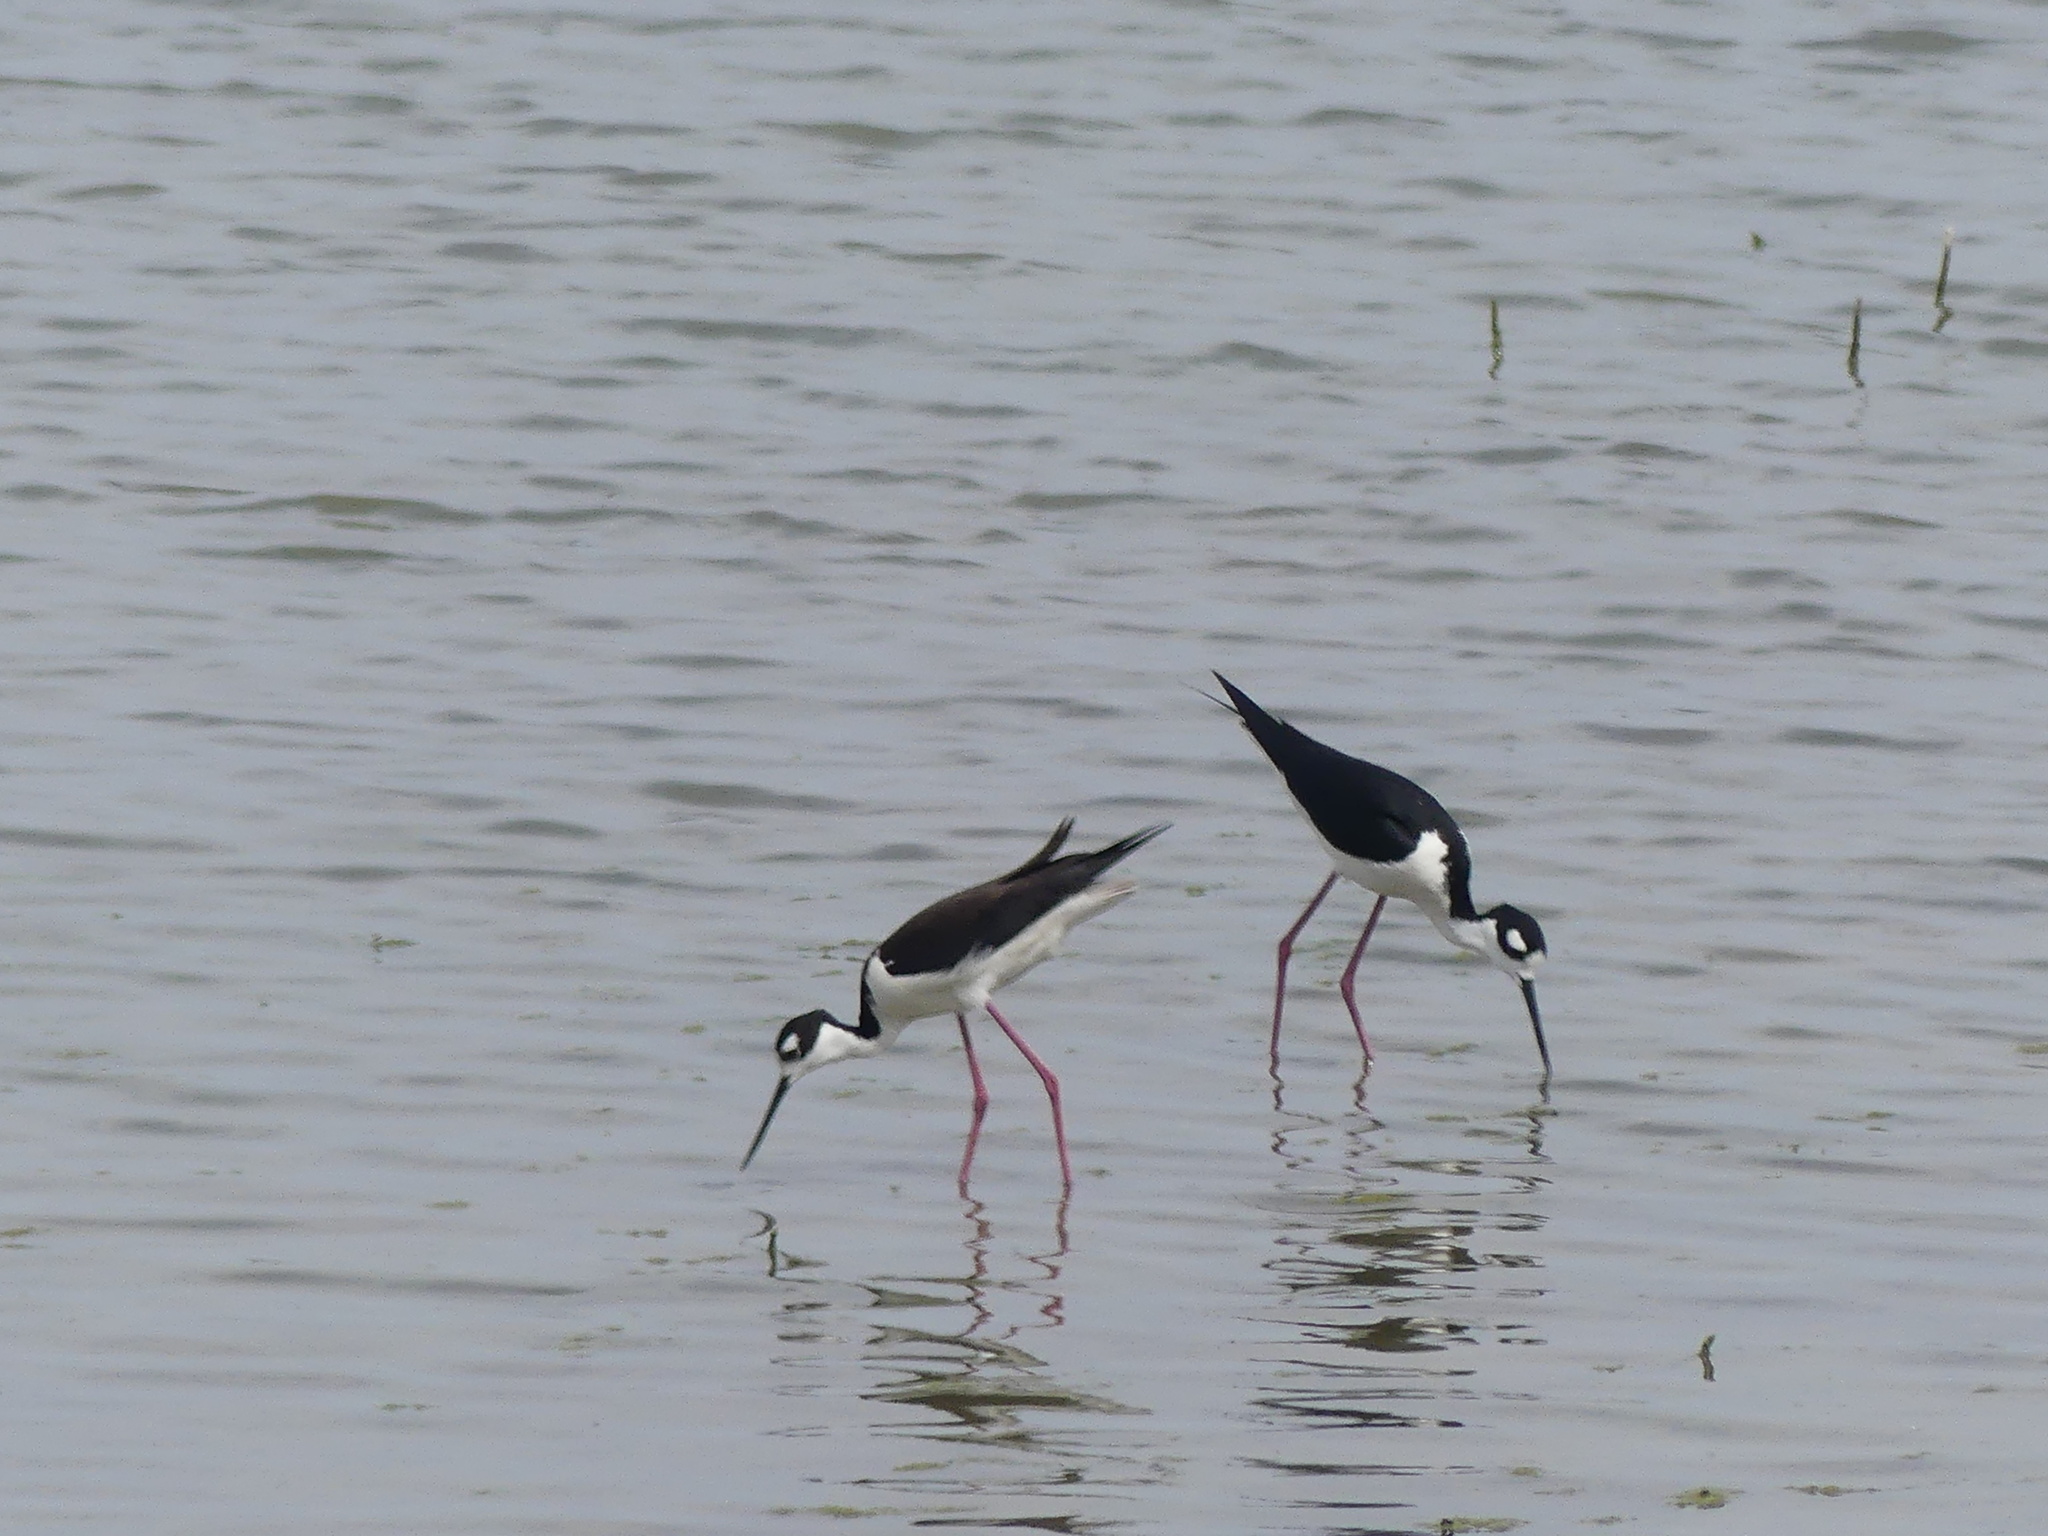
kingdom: Animalia
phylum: Chordata
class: Aves
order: Charadriiformes
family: Recurvirostridae
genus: Himantopus
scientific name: Himantopus mexicanus
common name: Black-necked stilt
